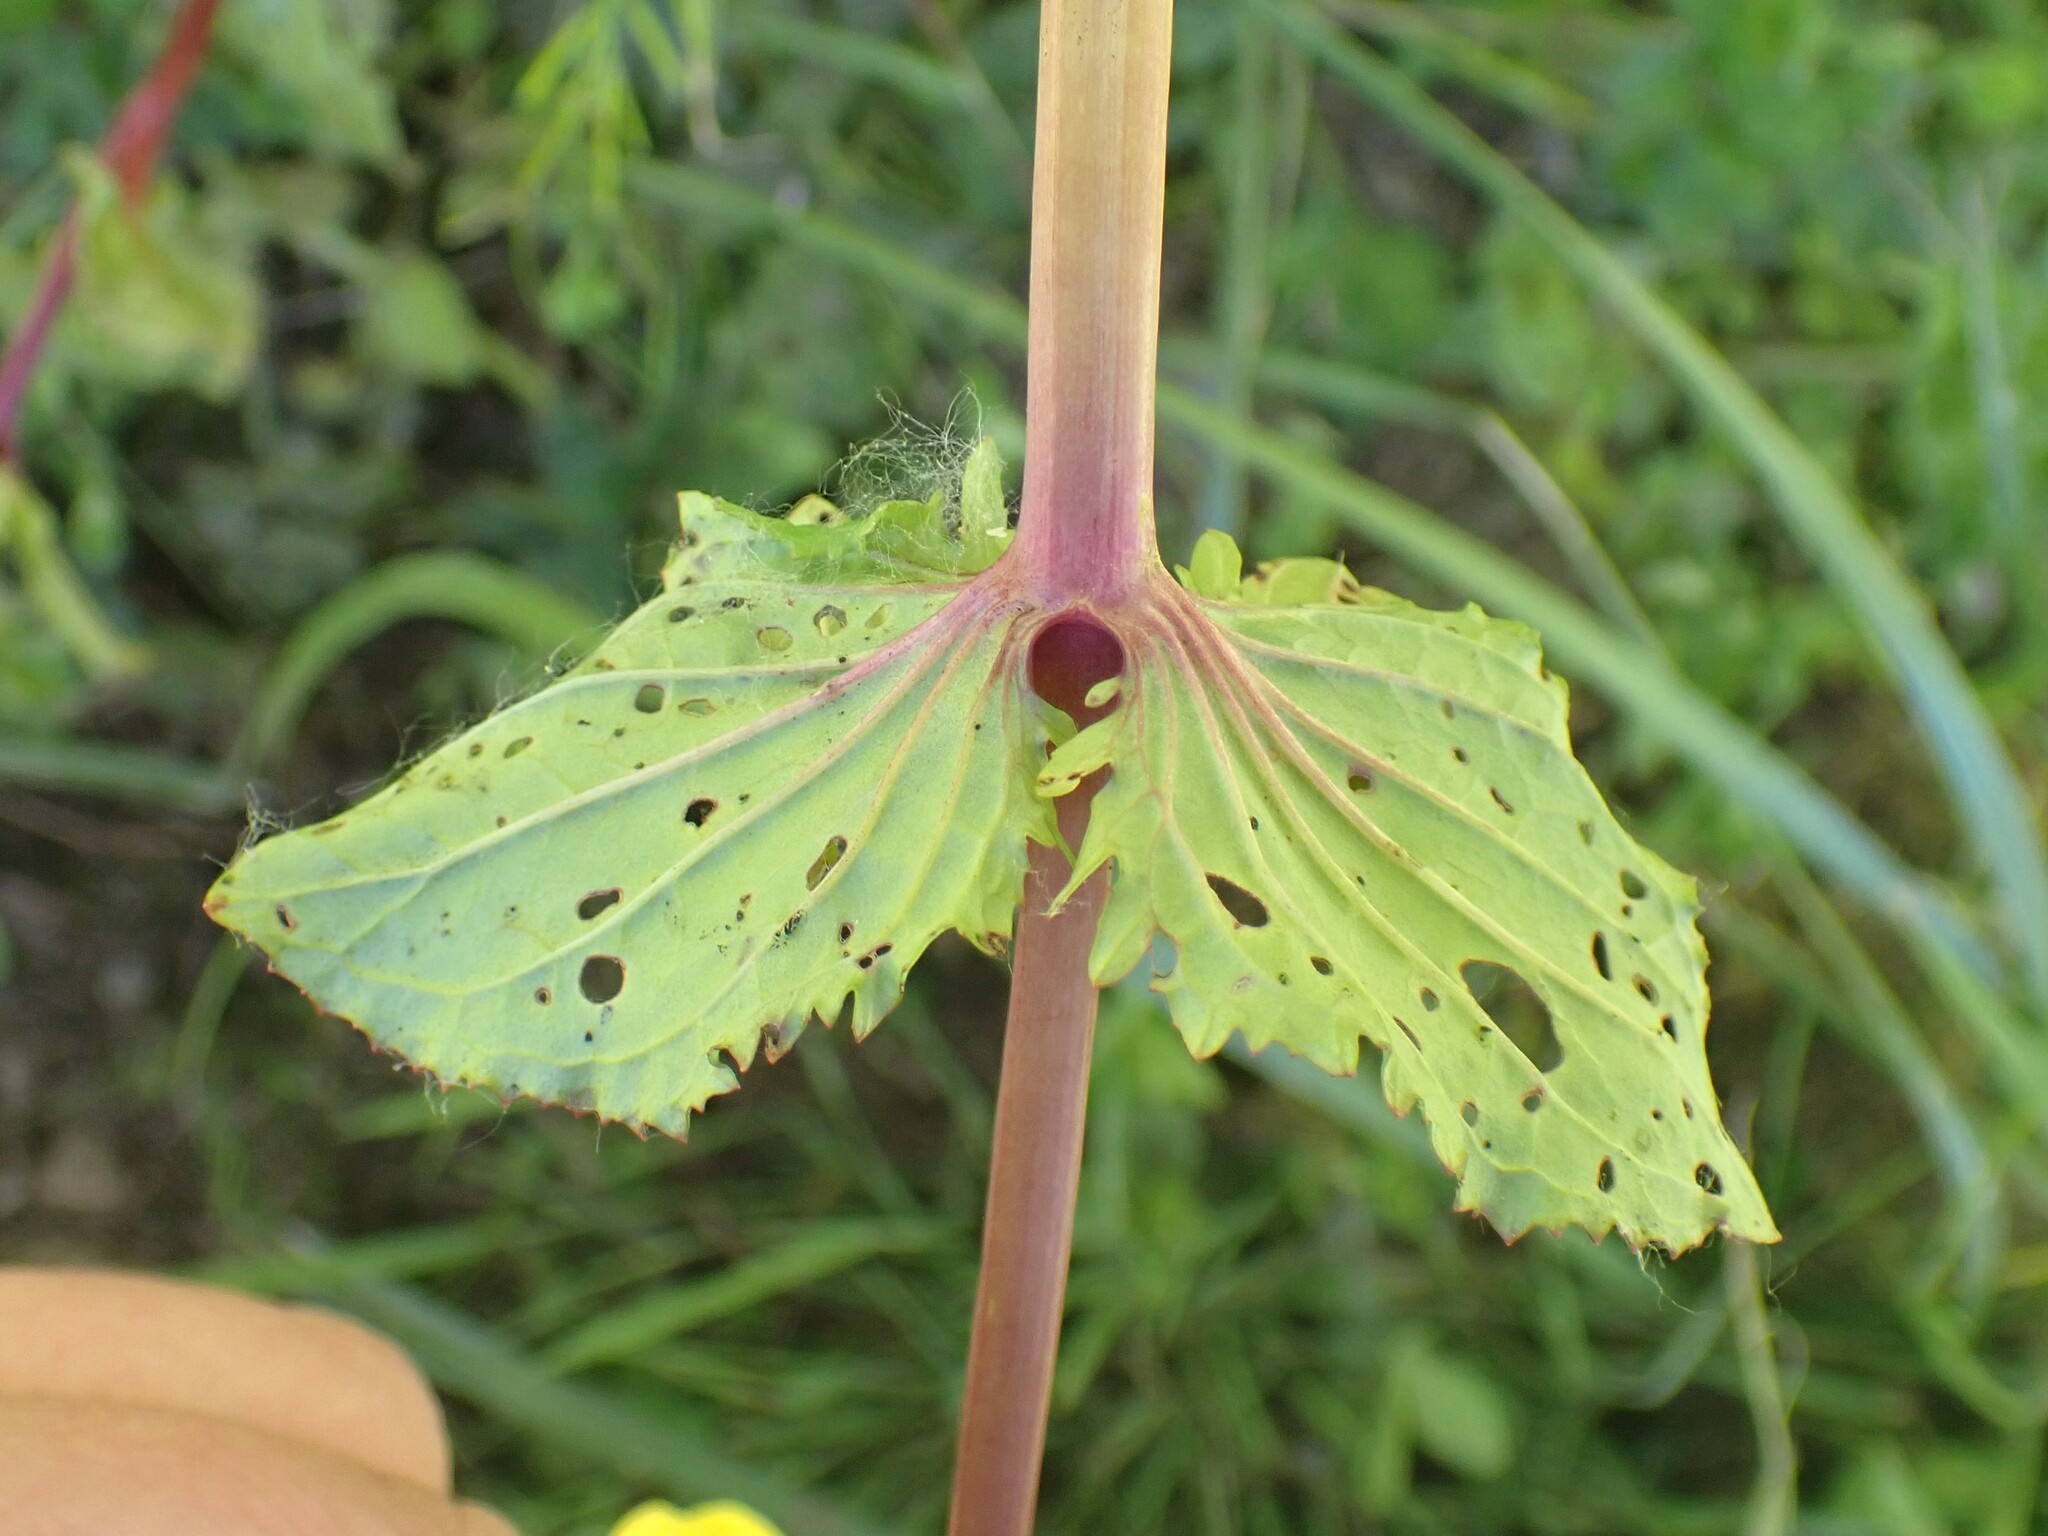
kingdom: Plantae
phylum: Tracheophyta
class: Magnoliopsida
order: Lamiales
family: Phrymaceae
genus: Erythranthe
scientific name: Erythranthe guttata
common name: Monkeyflower
